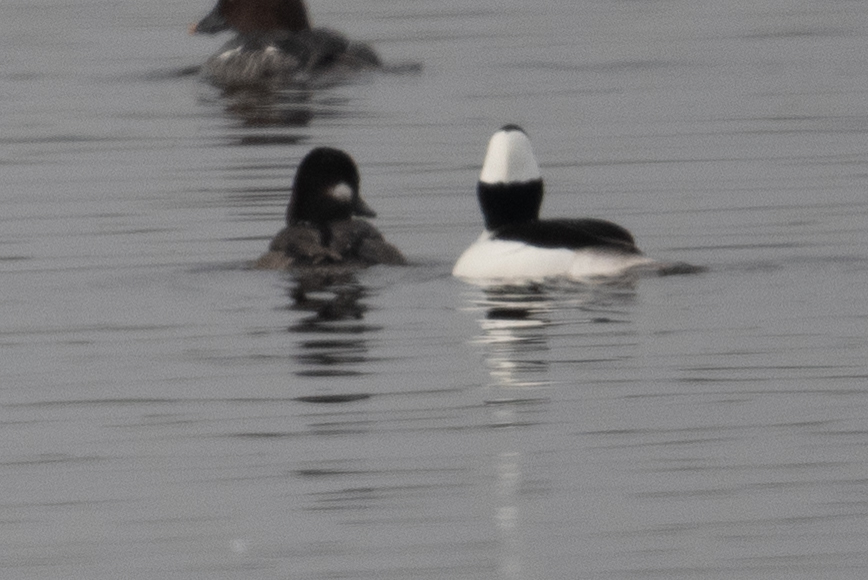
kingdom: Animalia
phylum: Chordata
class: Aves
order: Anseriformes
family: Anatidae
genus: Bucephala
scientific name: Bucephala albeola
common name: Bufflehead
